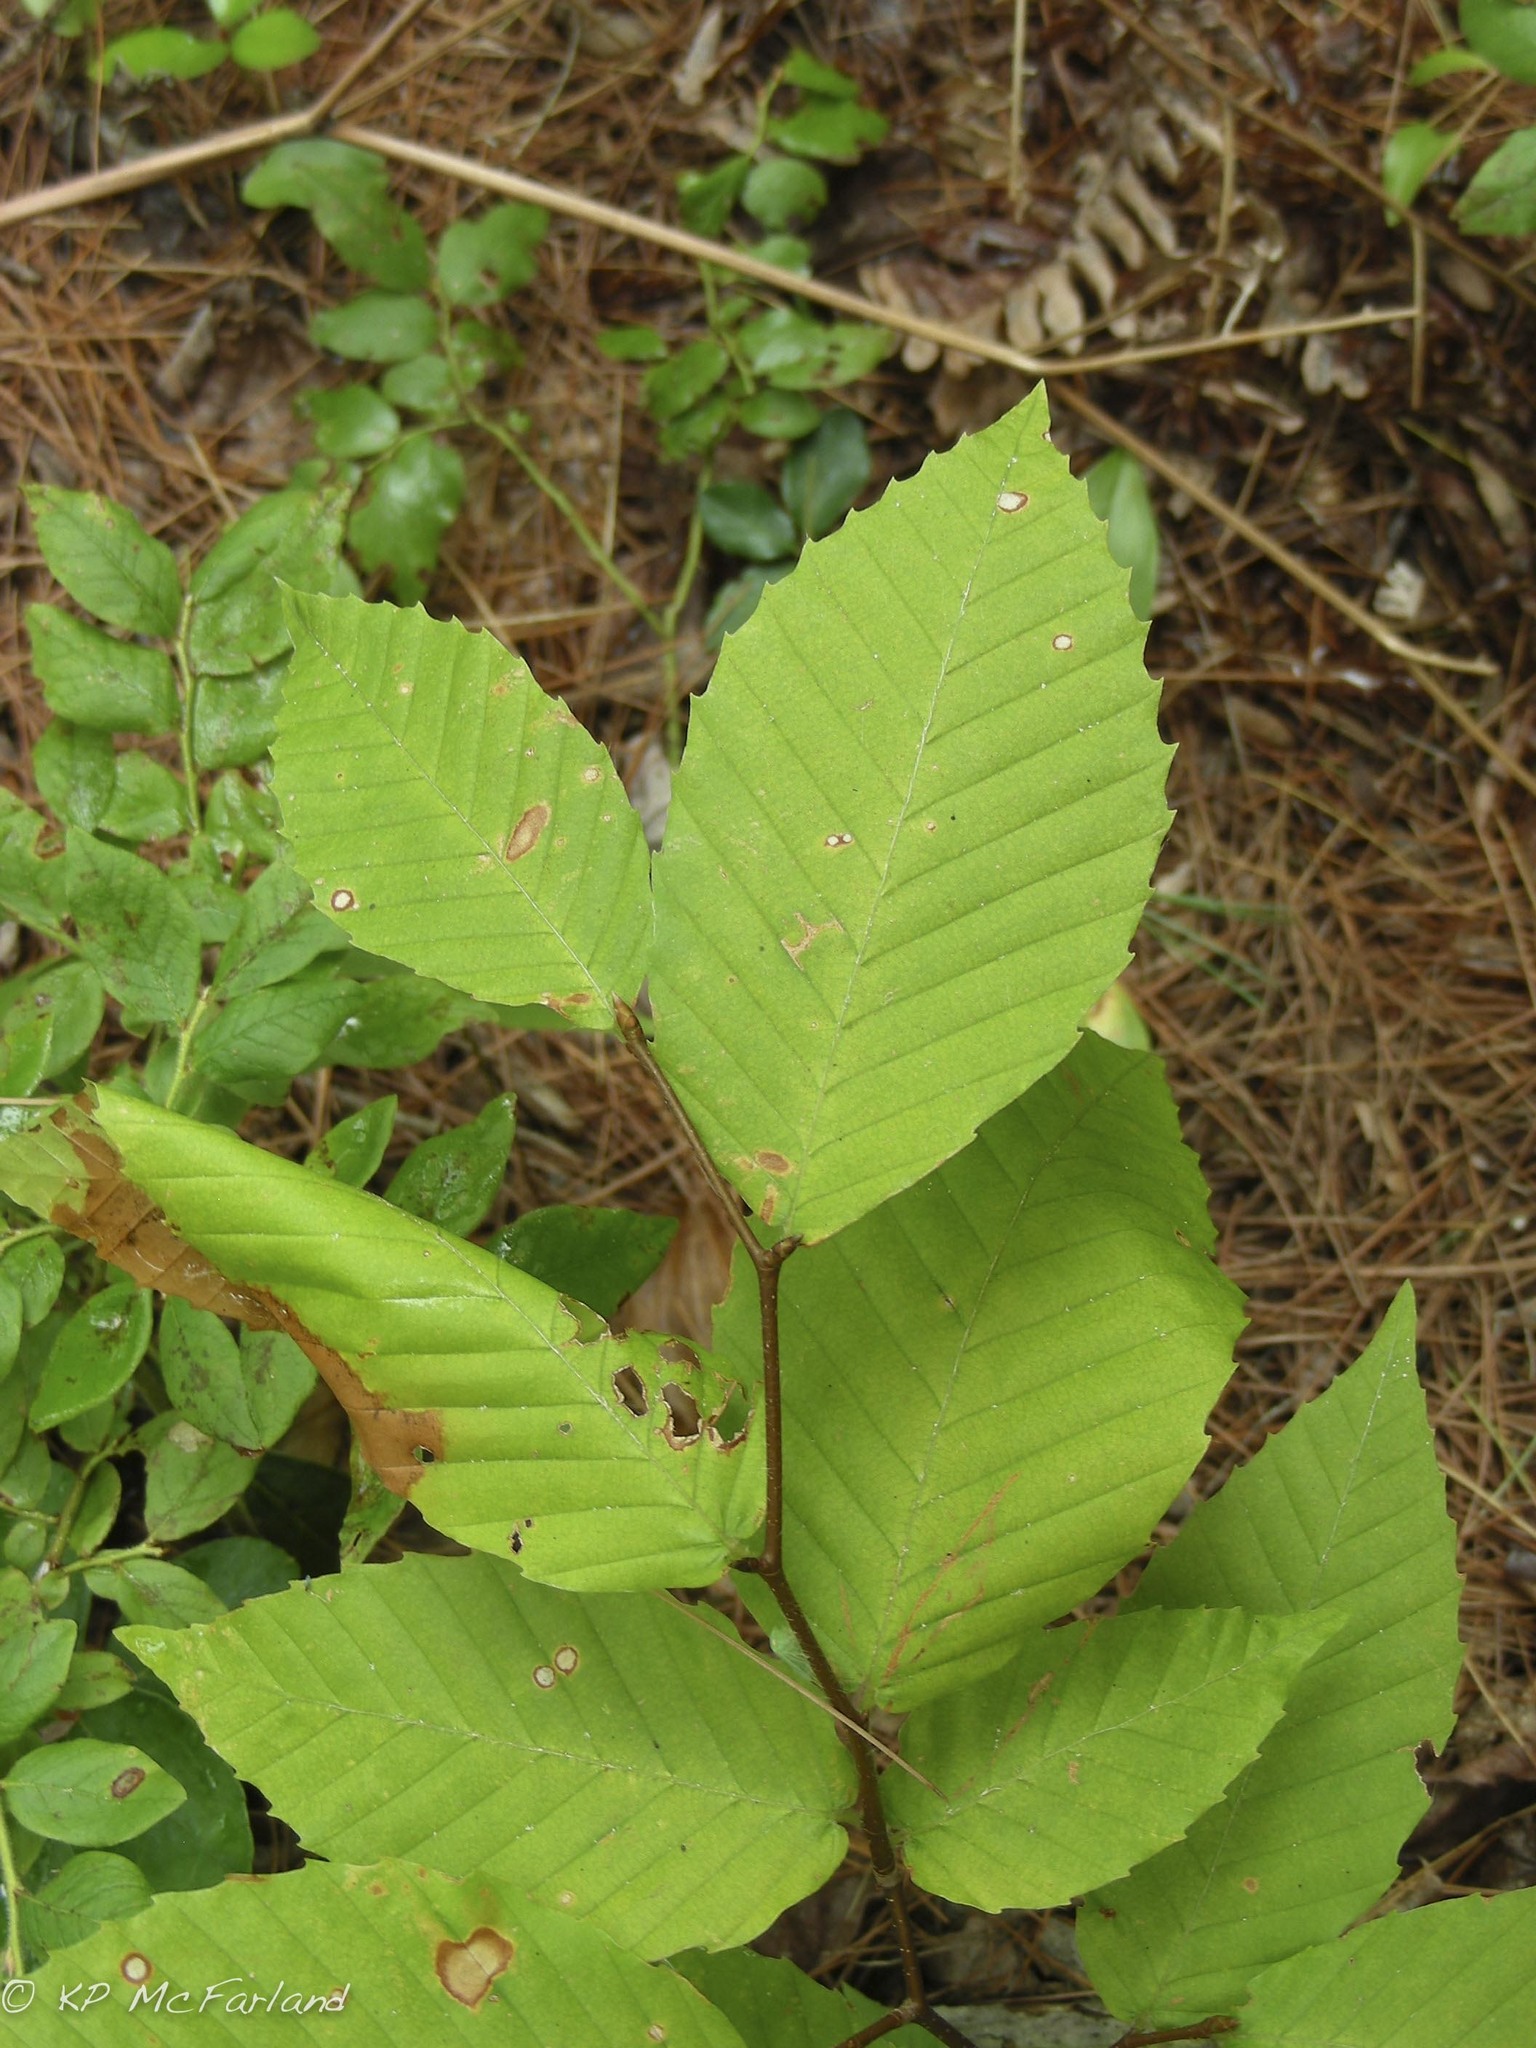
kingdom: Plantae
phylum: Tracheophyta
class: Magnoliopsida
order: Fagales
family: Fagaceae
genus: Fagus
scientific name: Fagus grandifolia
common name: American beech
